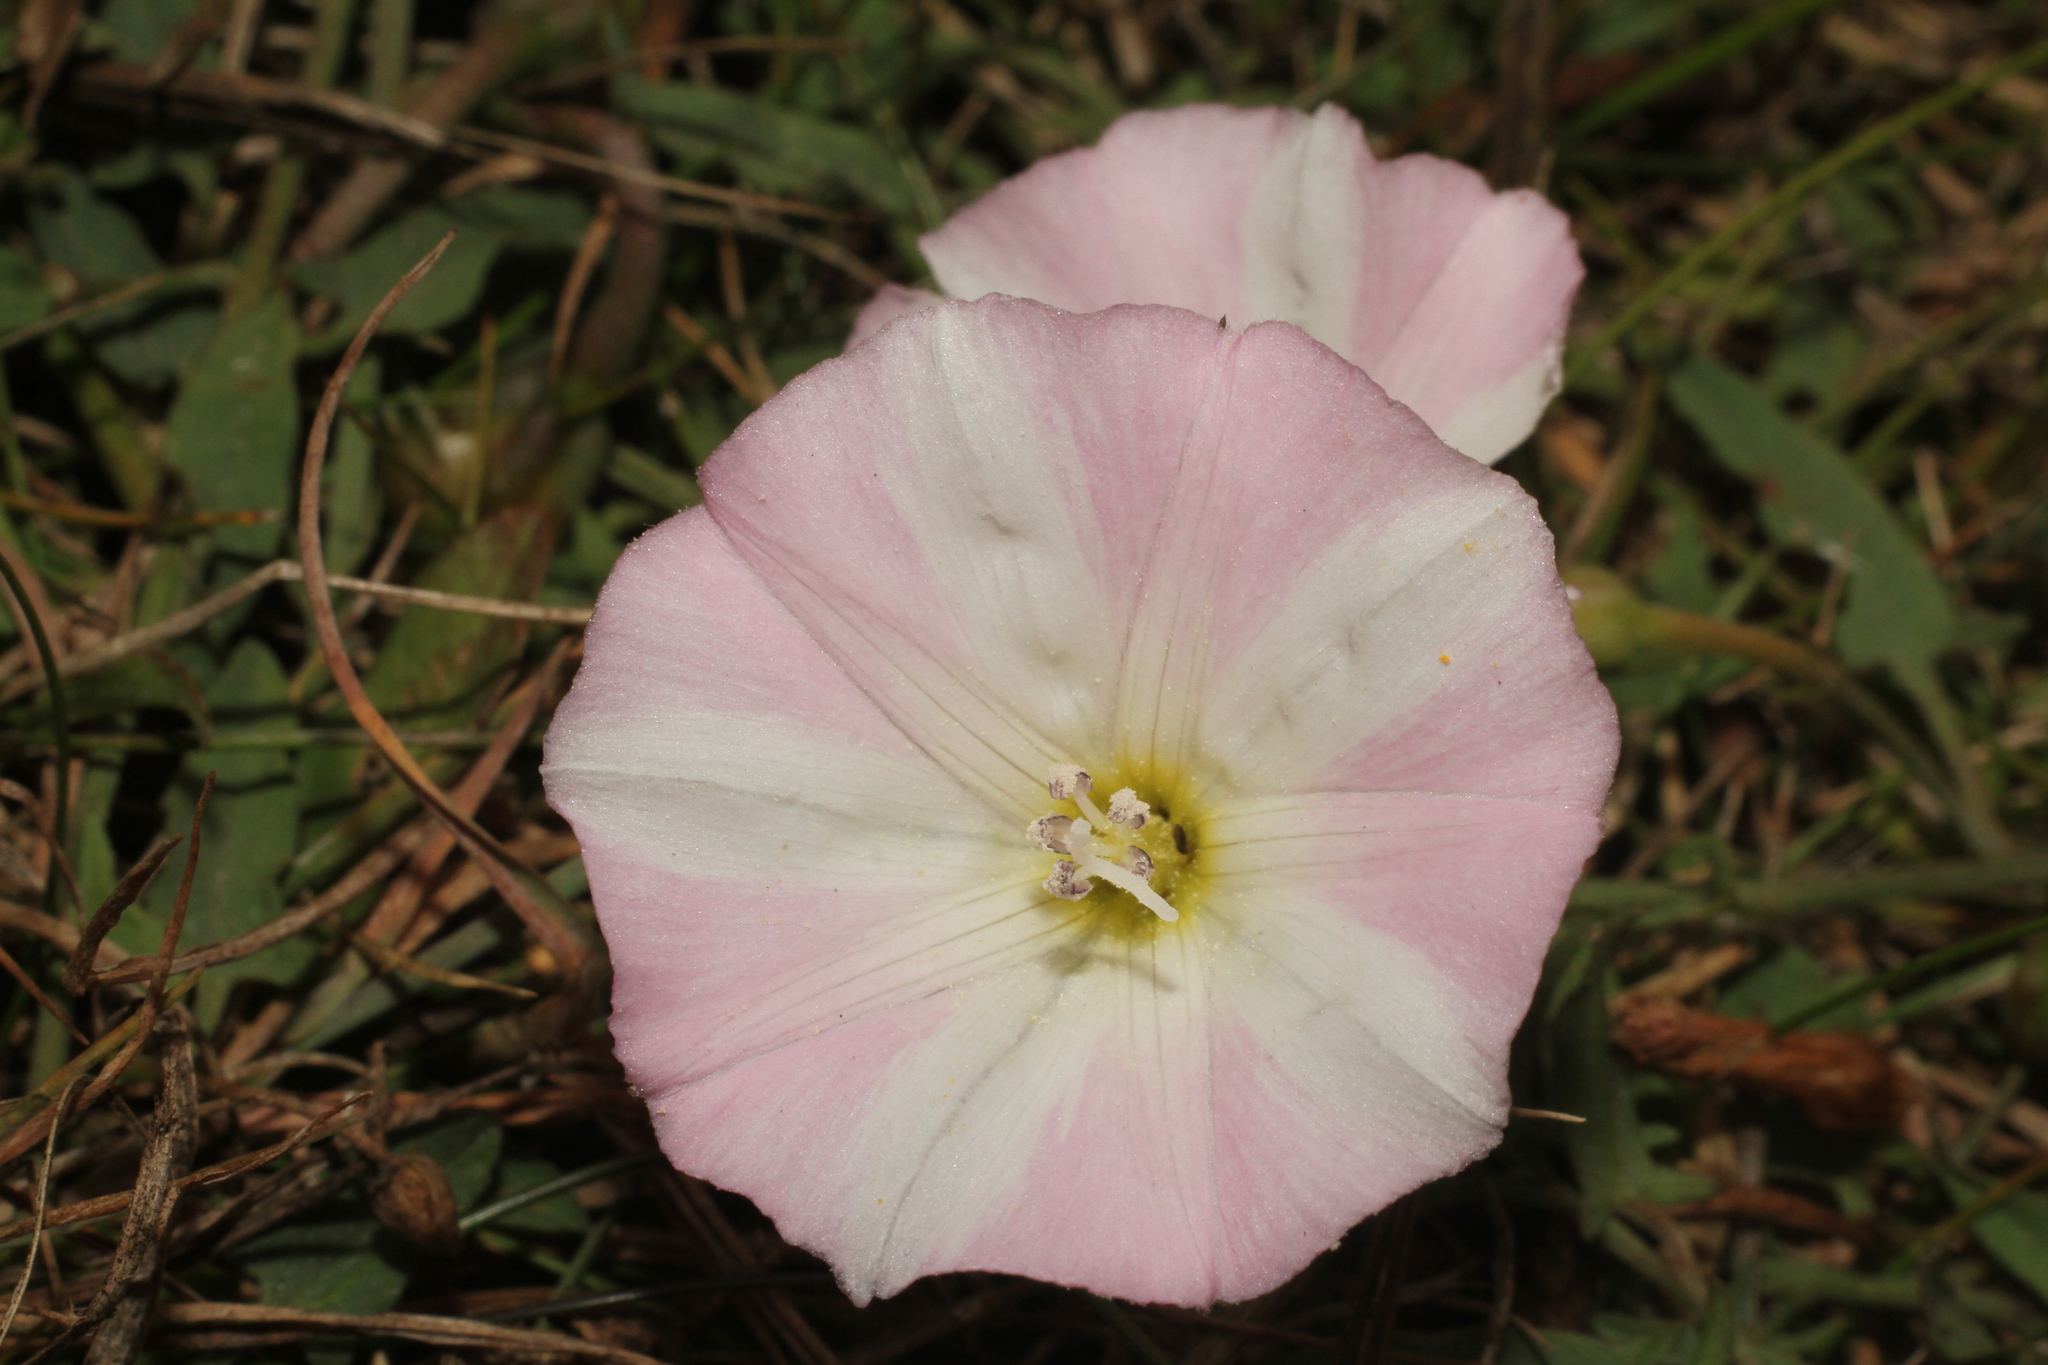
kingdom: Plantae
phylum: Tracheophyta
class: Magnoliopsida
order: Solanales
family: Convolvulaceae
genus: Convolvulus
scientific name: Convolvulus arvensis
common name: Field bindweed
